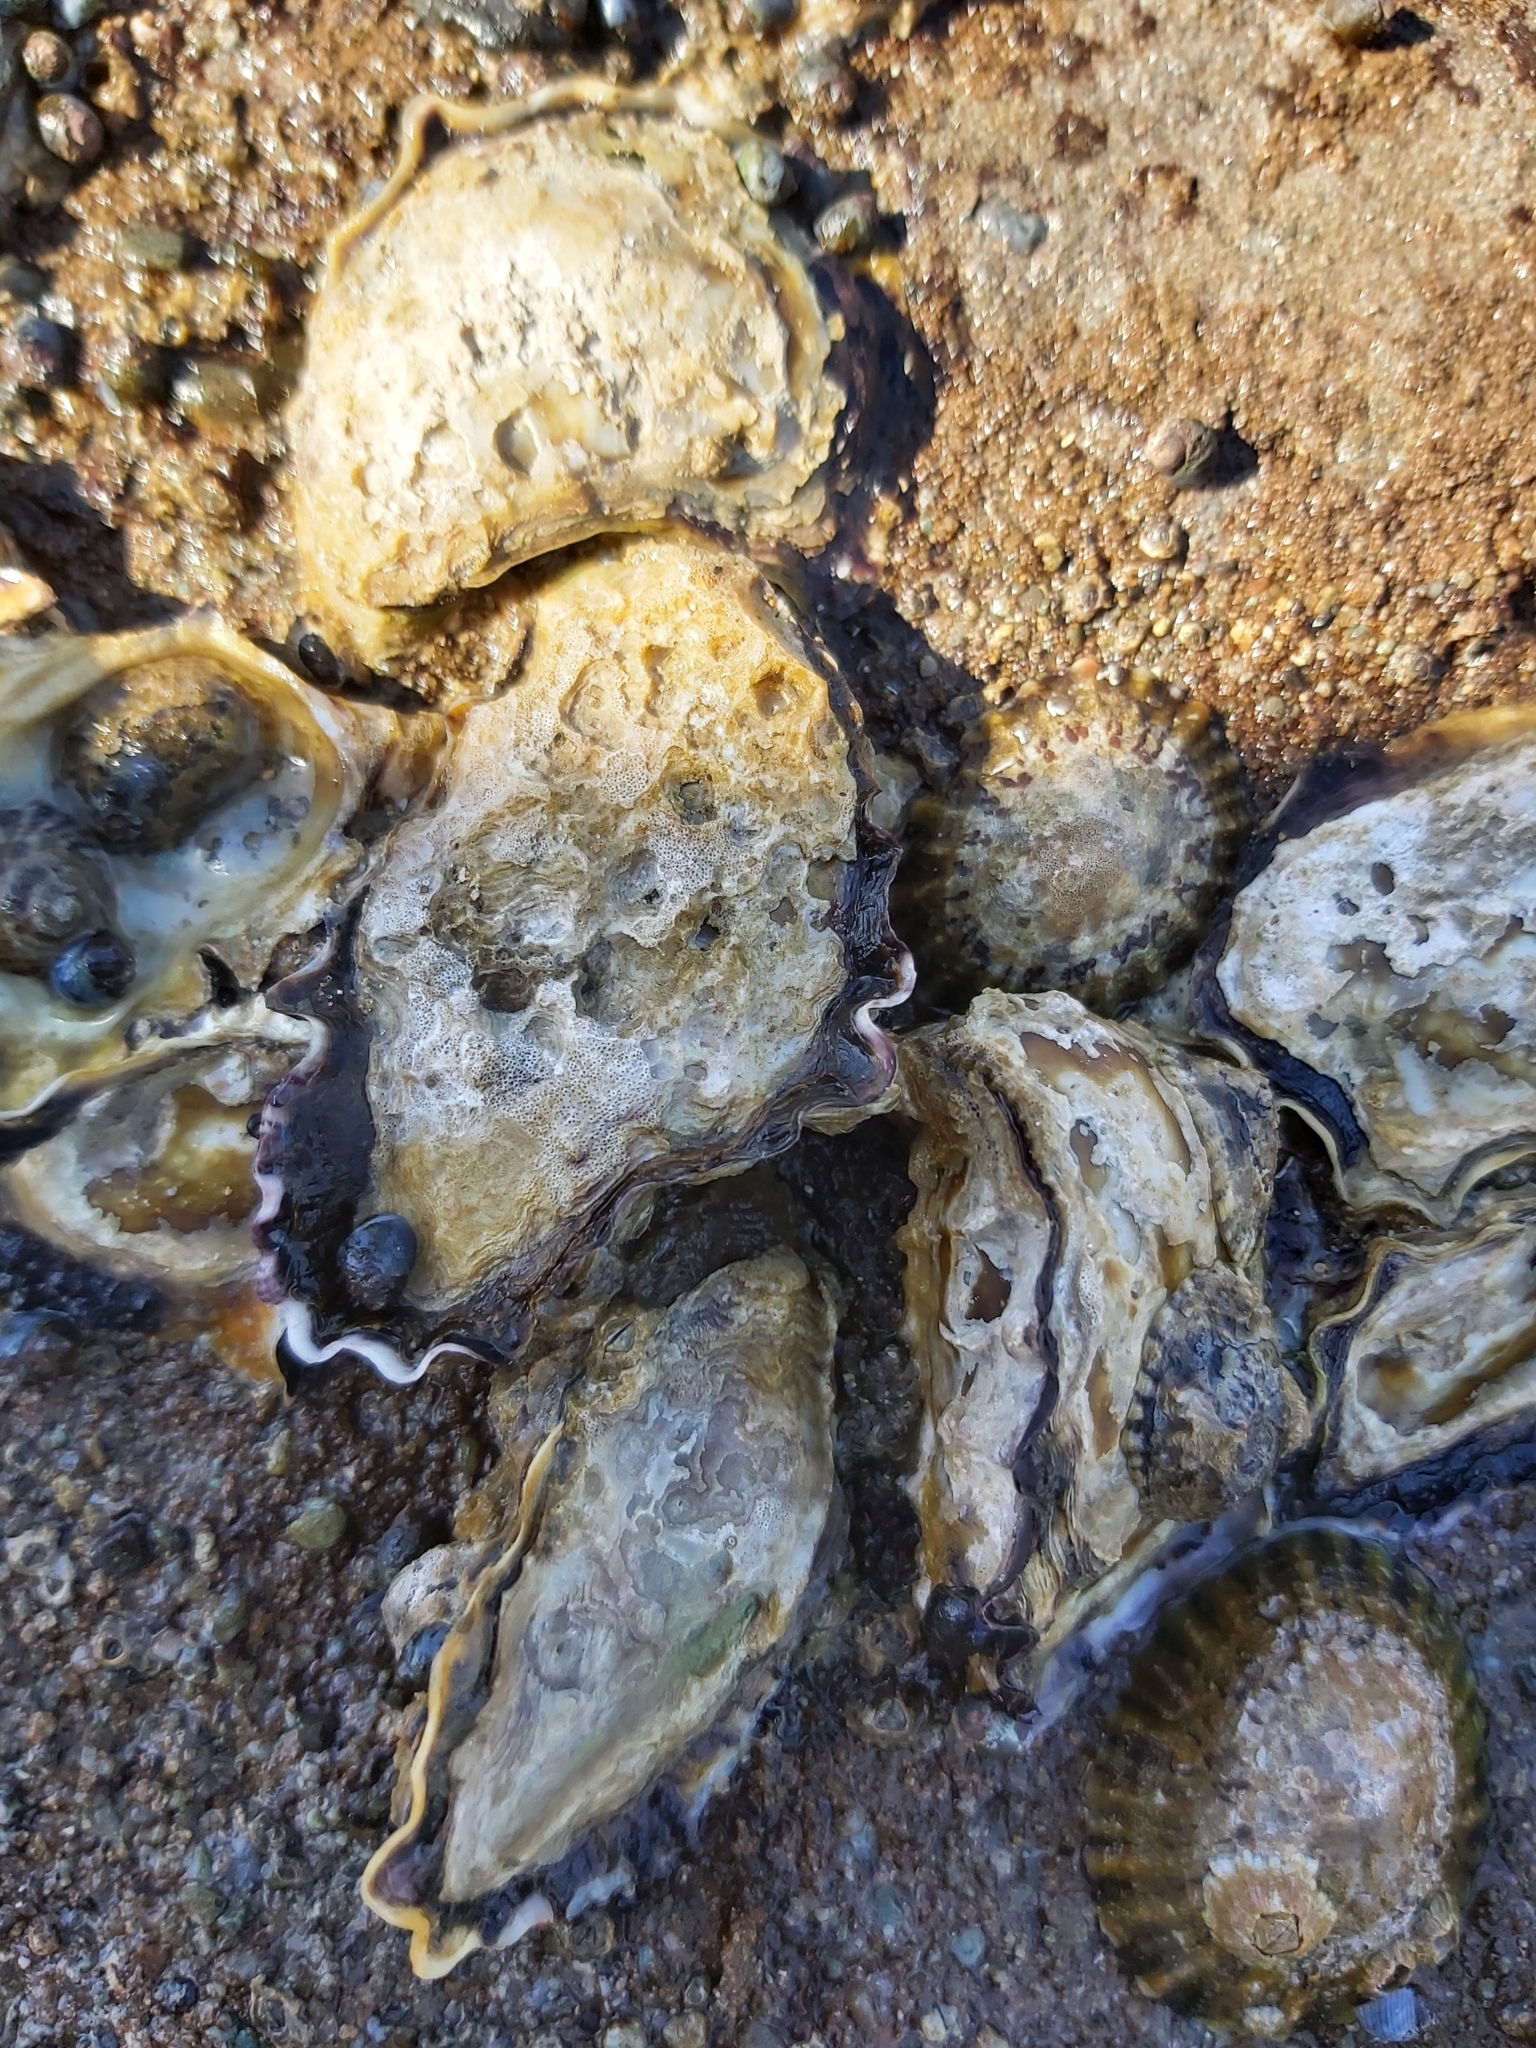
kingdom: Animalia
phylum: Mollusca
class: Bivalvia
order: Ostreida
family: Ostreidae
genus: Saccostrea
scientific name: Saccostrea glomerata
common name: Sydney cupped oyster
